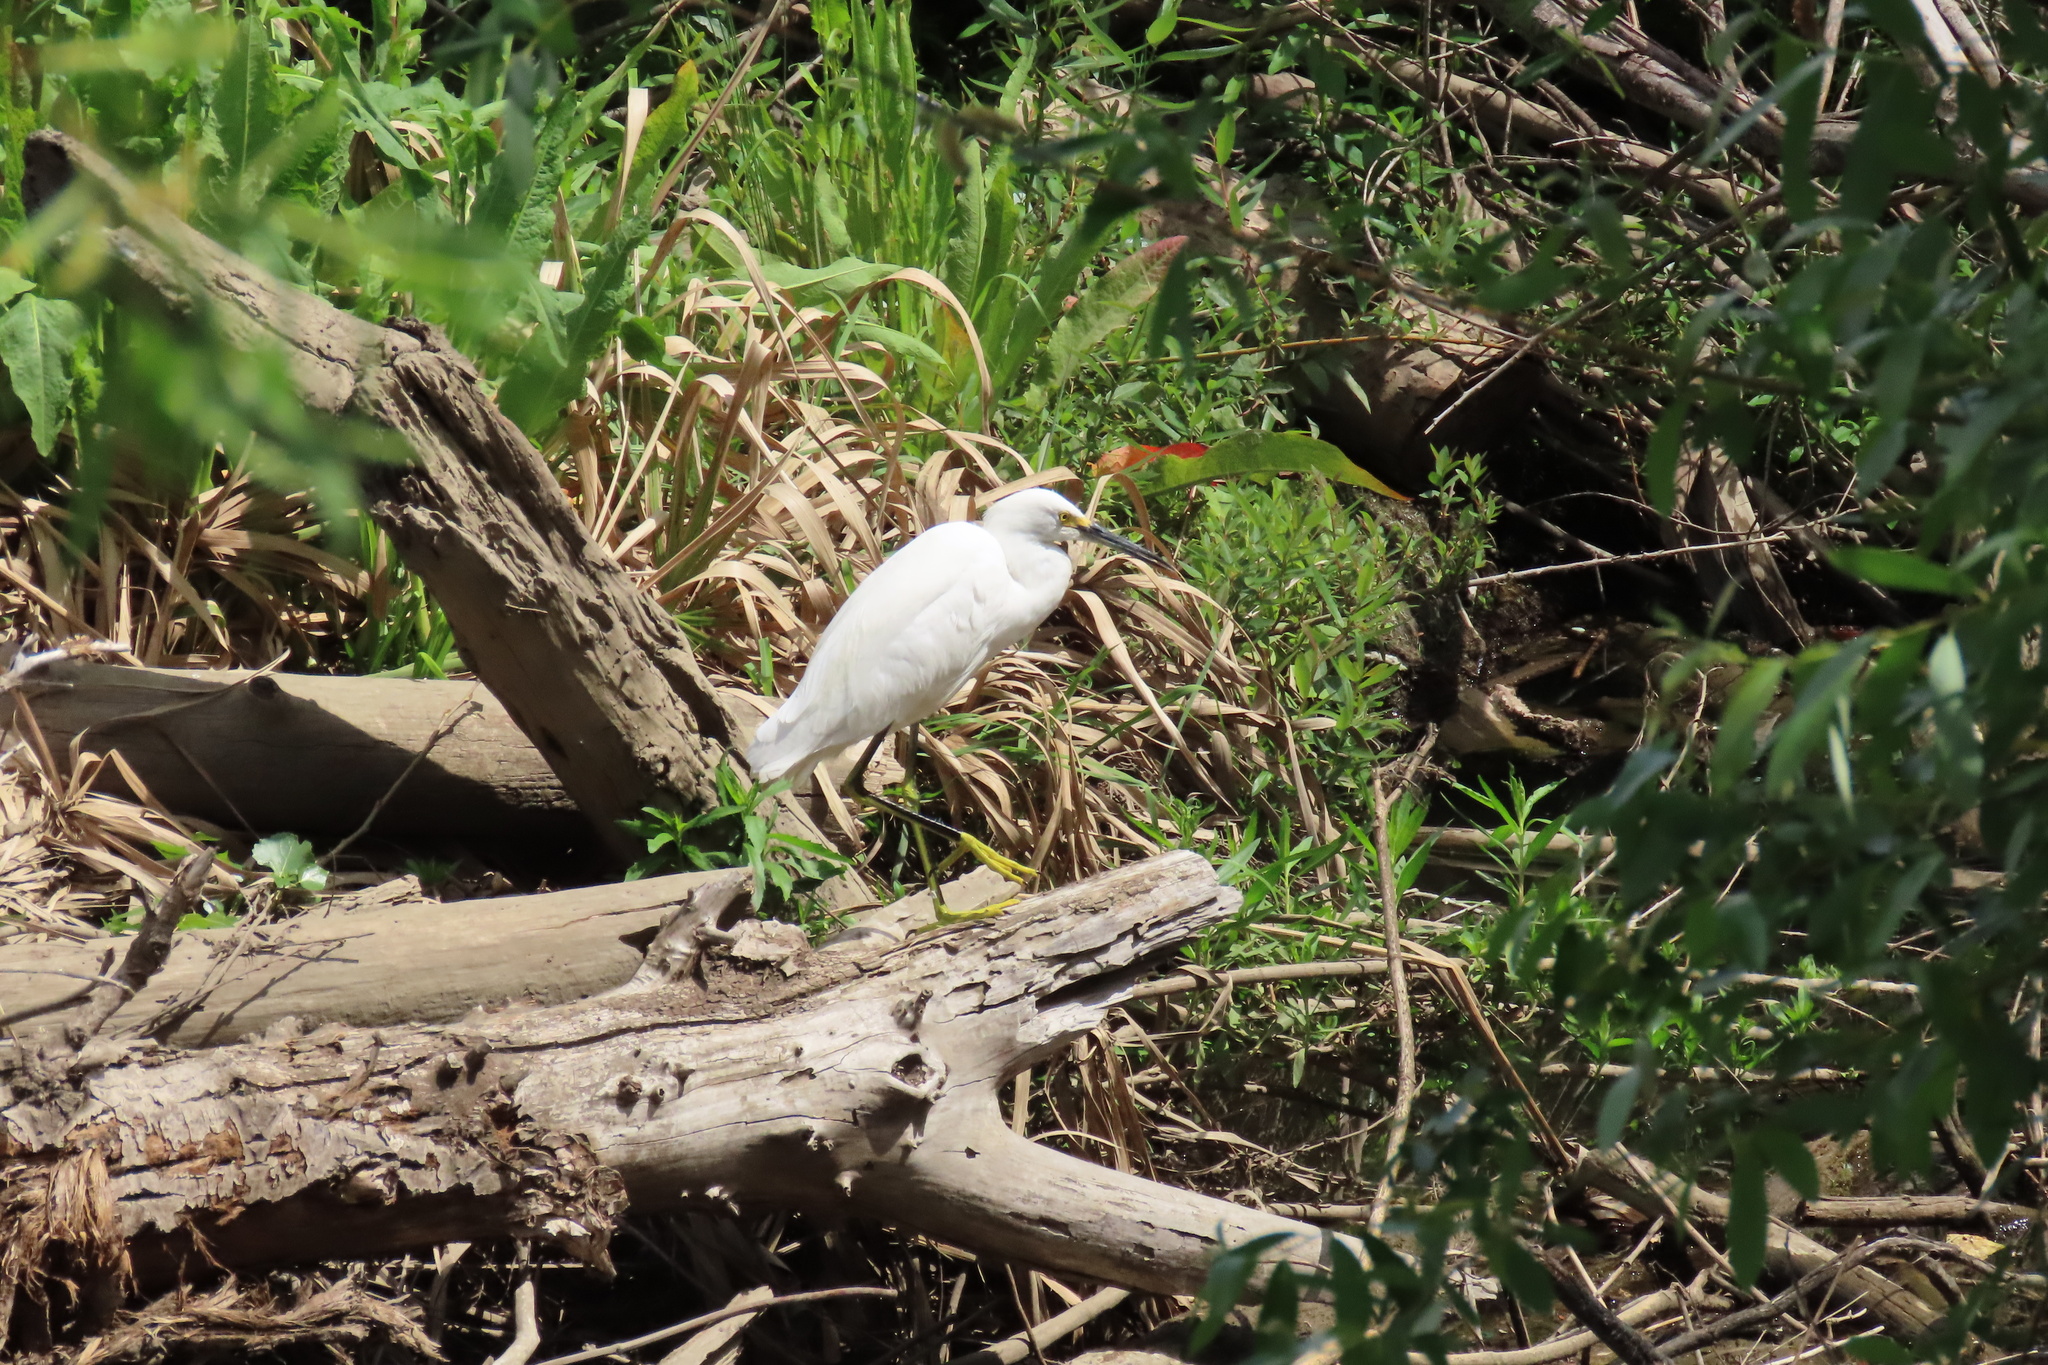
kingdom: Animalia
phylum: Chordata
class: Aves
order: Pelecaniformes
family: Ardeidae
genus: Egretta
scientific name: Egretta thula
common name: Snowy egret
